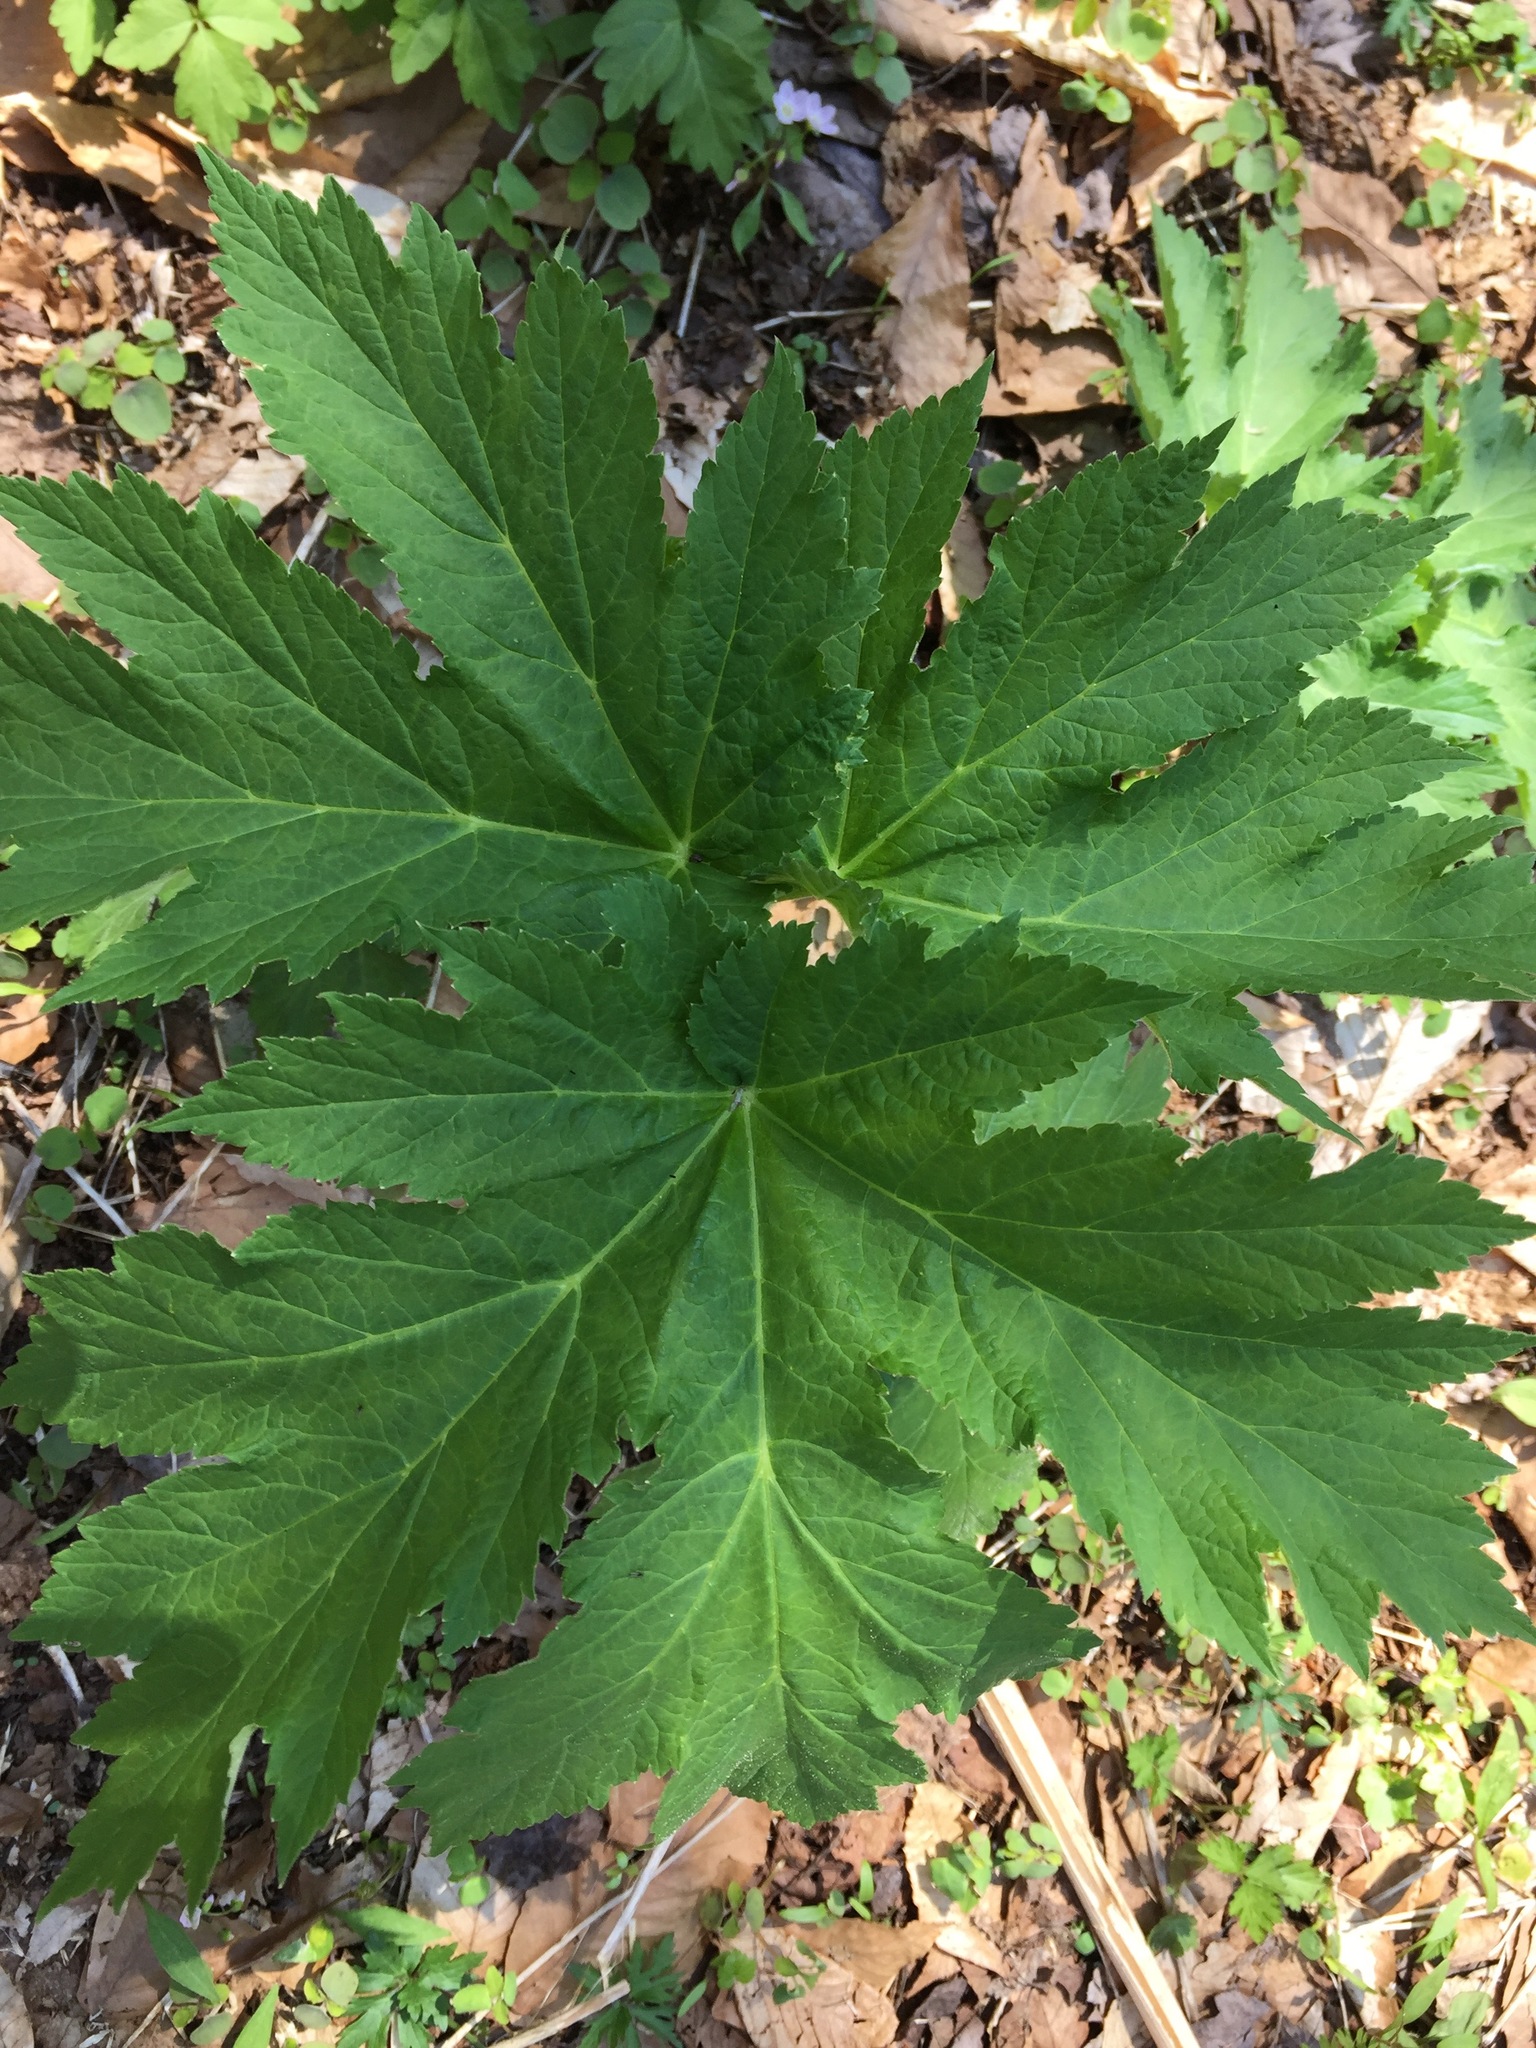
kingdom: Plantae
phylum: Tracheophyta
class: Magnoliopsida
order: Apiales
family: Apiaceae
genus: Heracleum
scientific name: Heracleum maximum
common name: American cow parsnip
